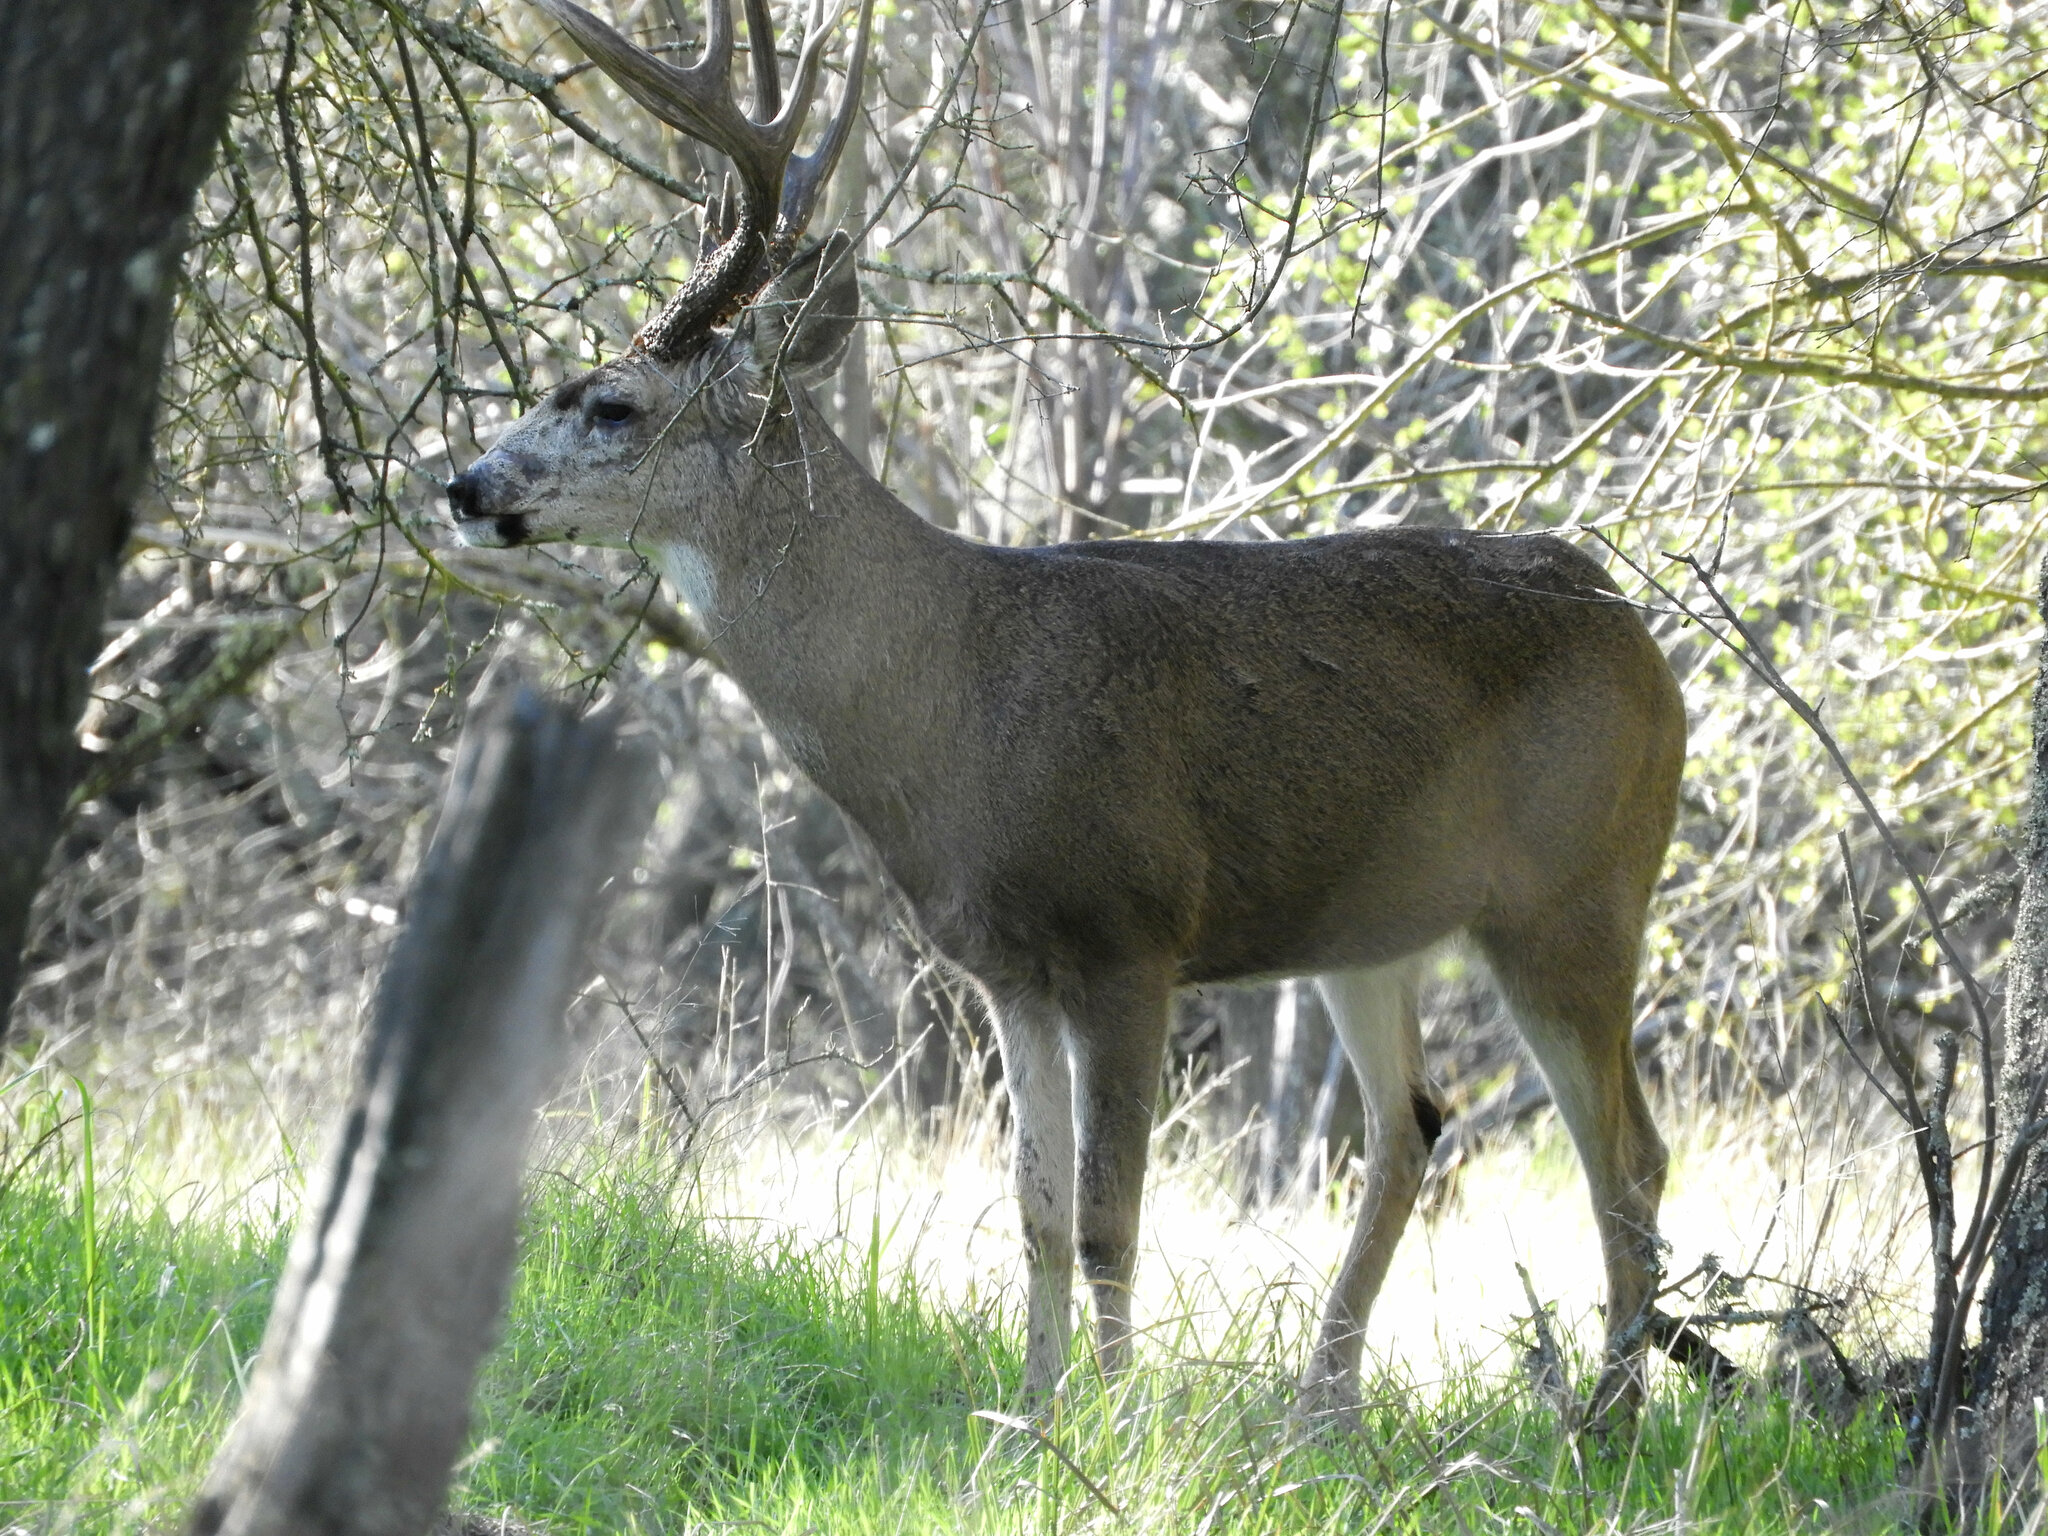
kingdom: Animalia
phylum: Chordata
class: Mammalia
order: Artiodactyla
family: Cervidae
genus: Odocoileus
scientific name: Odocoileus hemionus
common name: Mule deer
